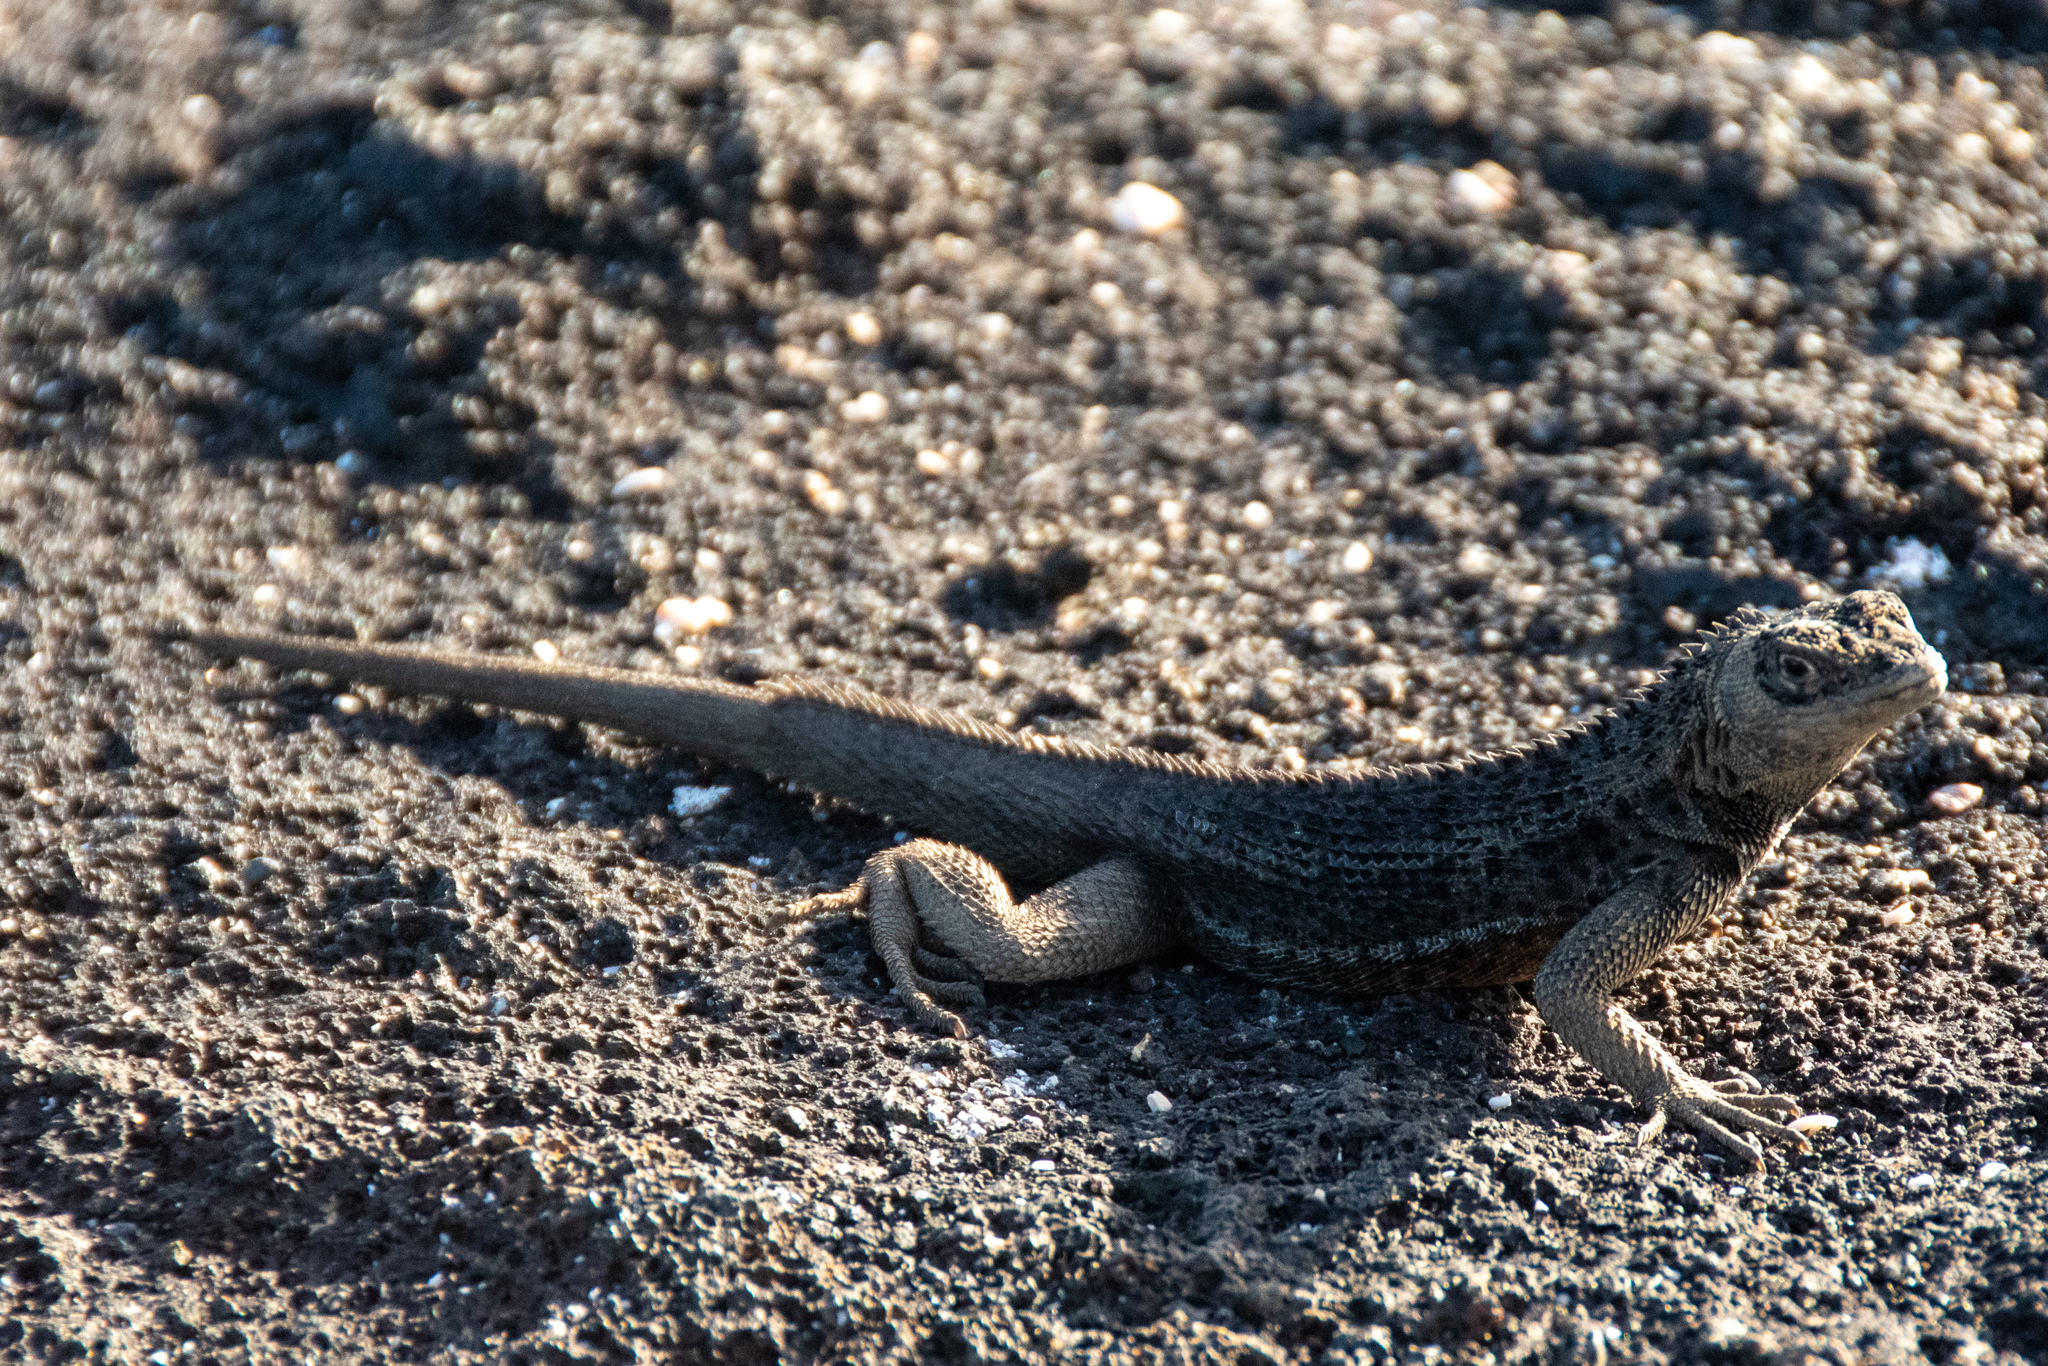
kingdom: Animalia
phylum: Chordata
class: Squamata
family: Tropiduridae
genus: Microlophus
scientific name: Microlophus albemarlensis
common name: Galapagos lava lizard
